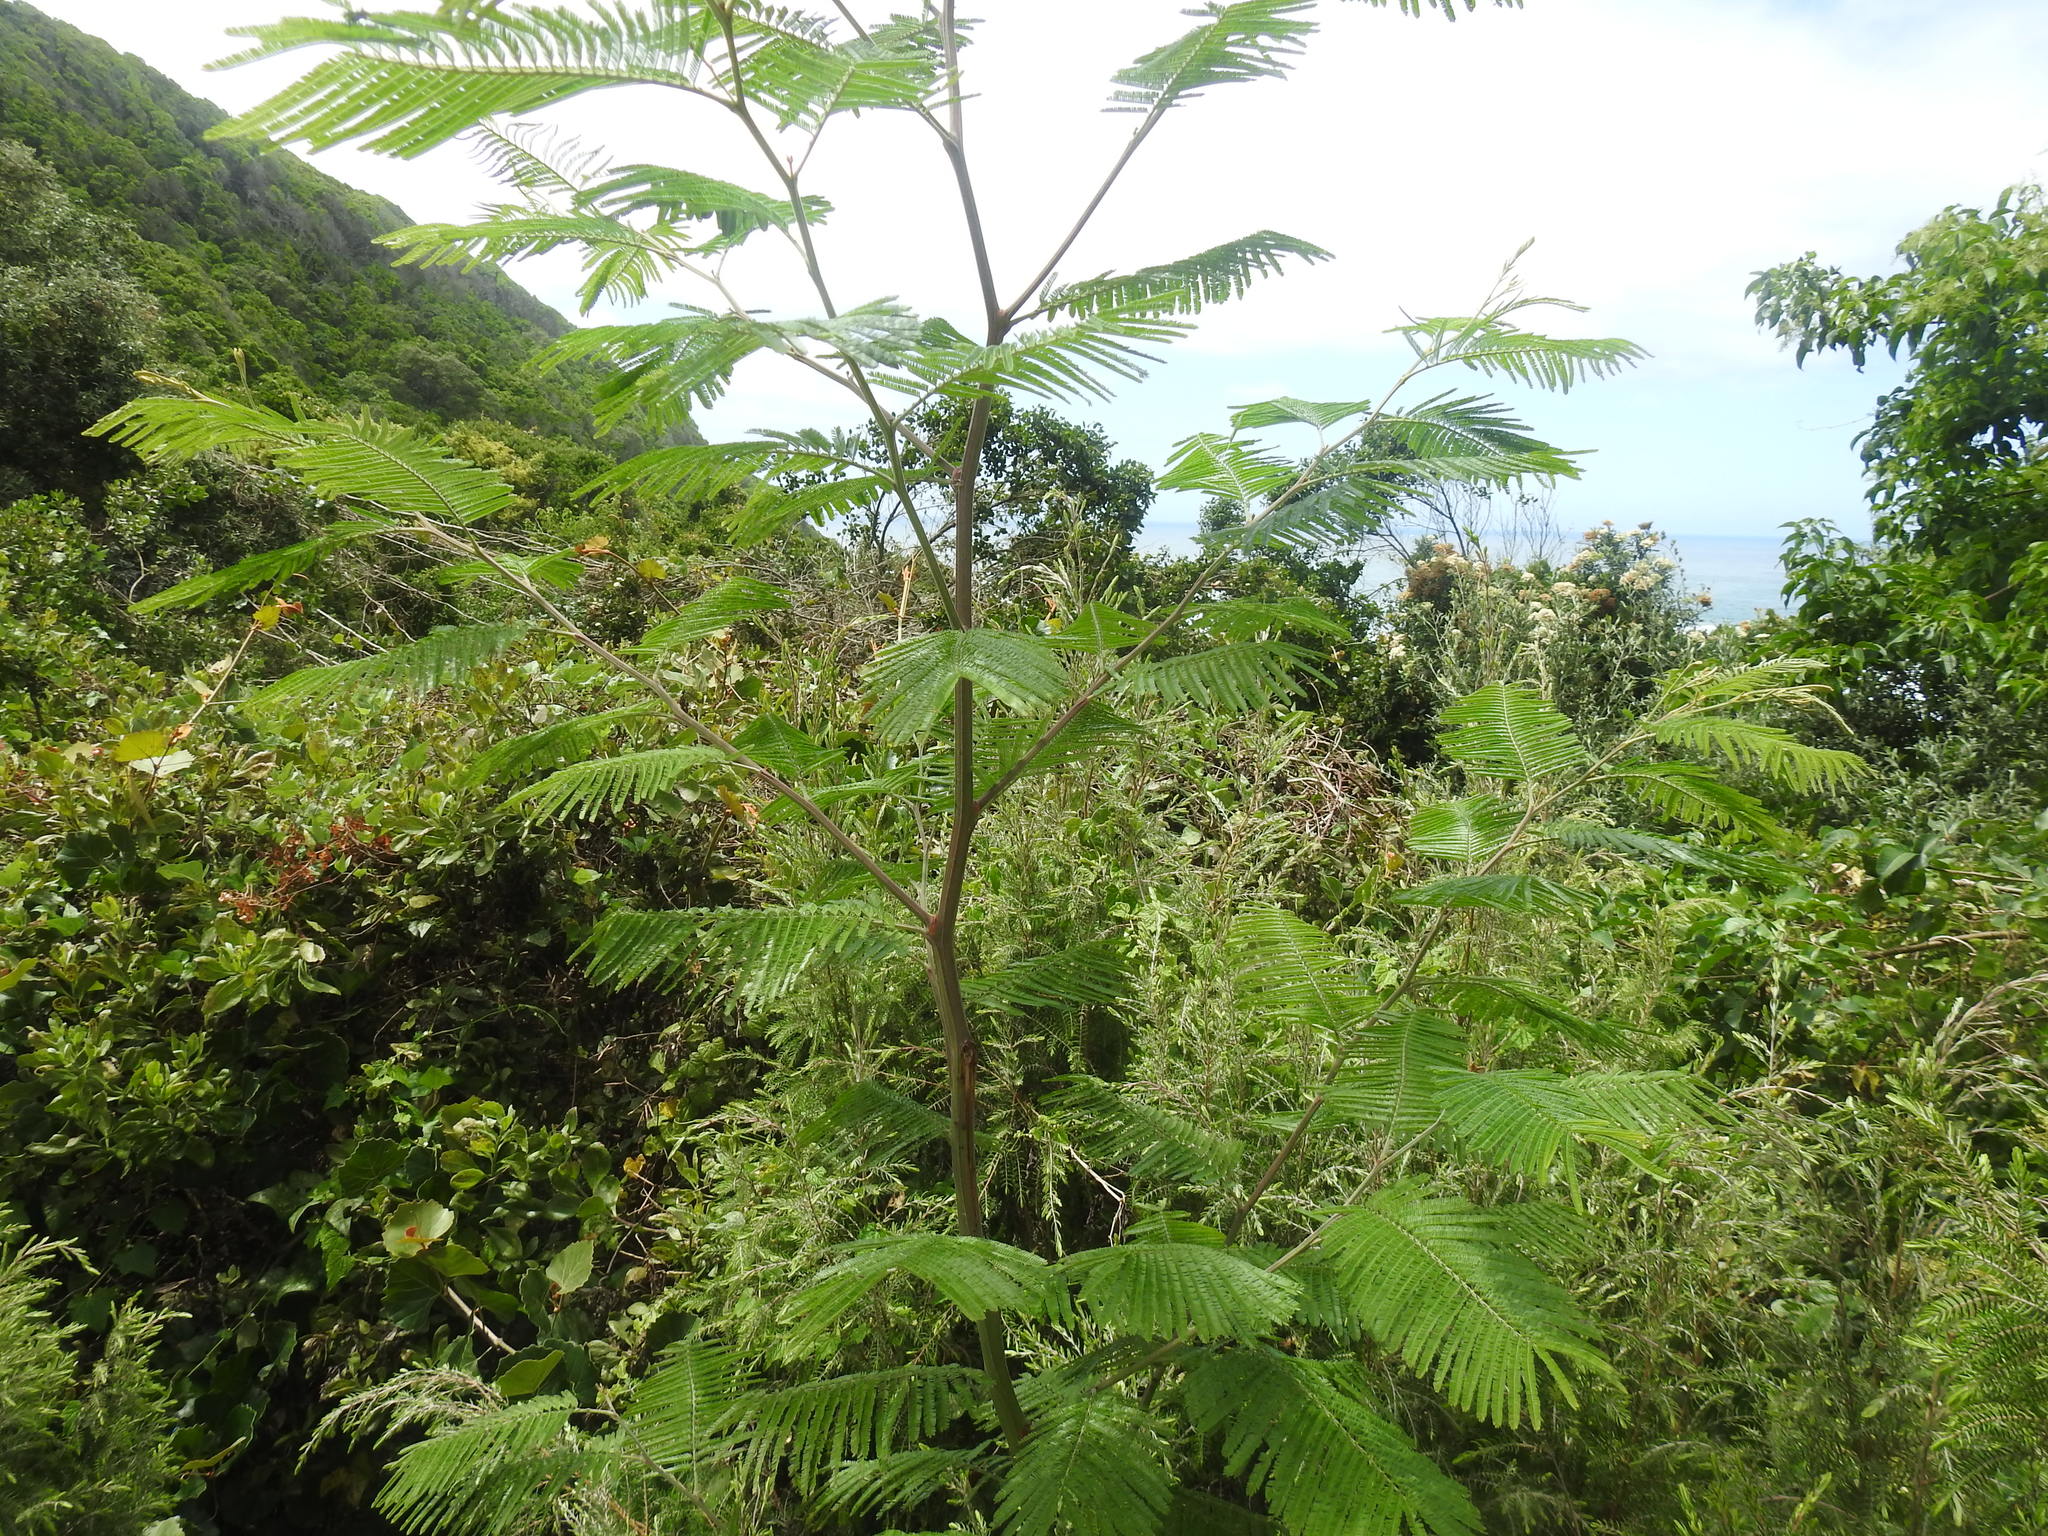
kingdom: Plantae
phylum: Tracheophyta
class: Magnoliopsida
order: Fabales
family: Fabaceae
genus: Acacia
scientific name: Acacia mearnsii
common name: Black wattle
